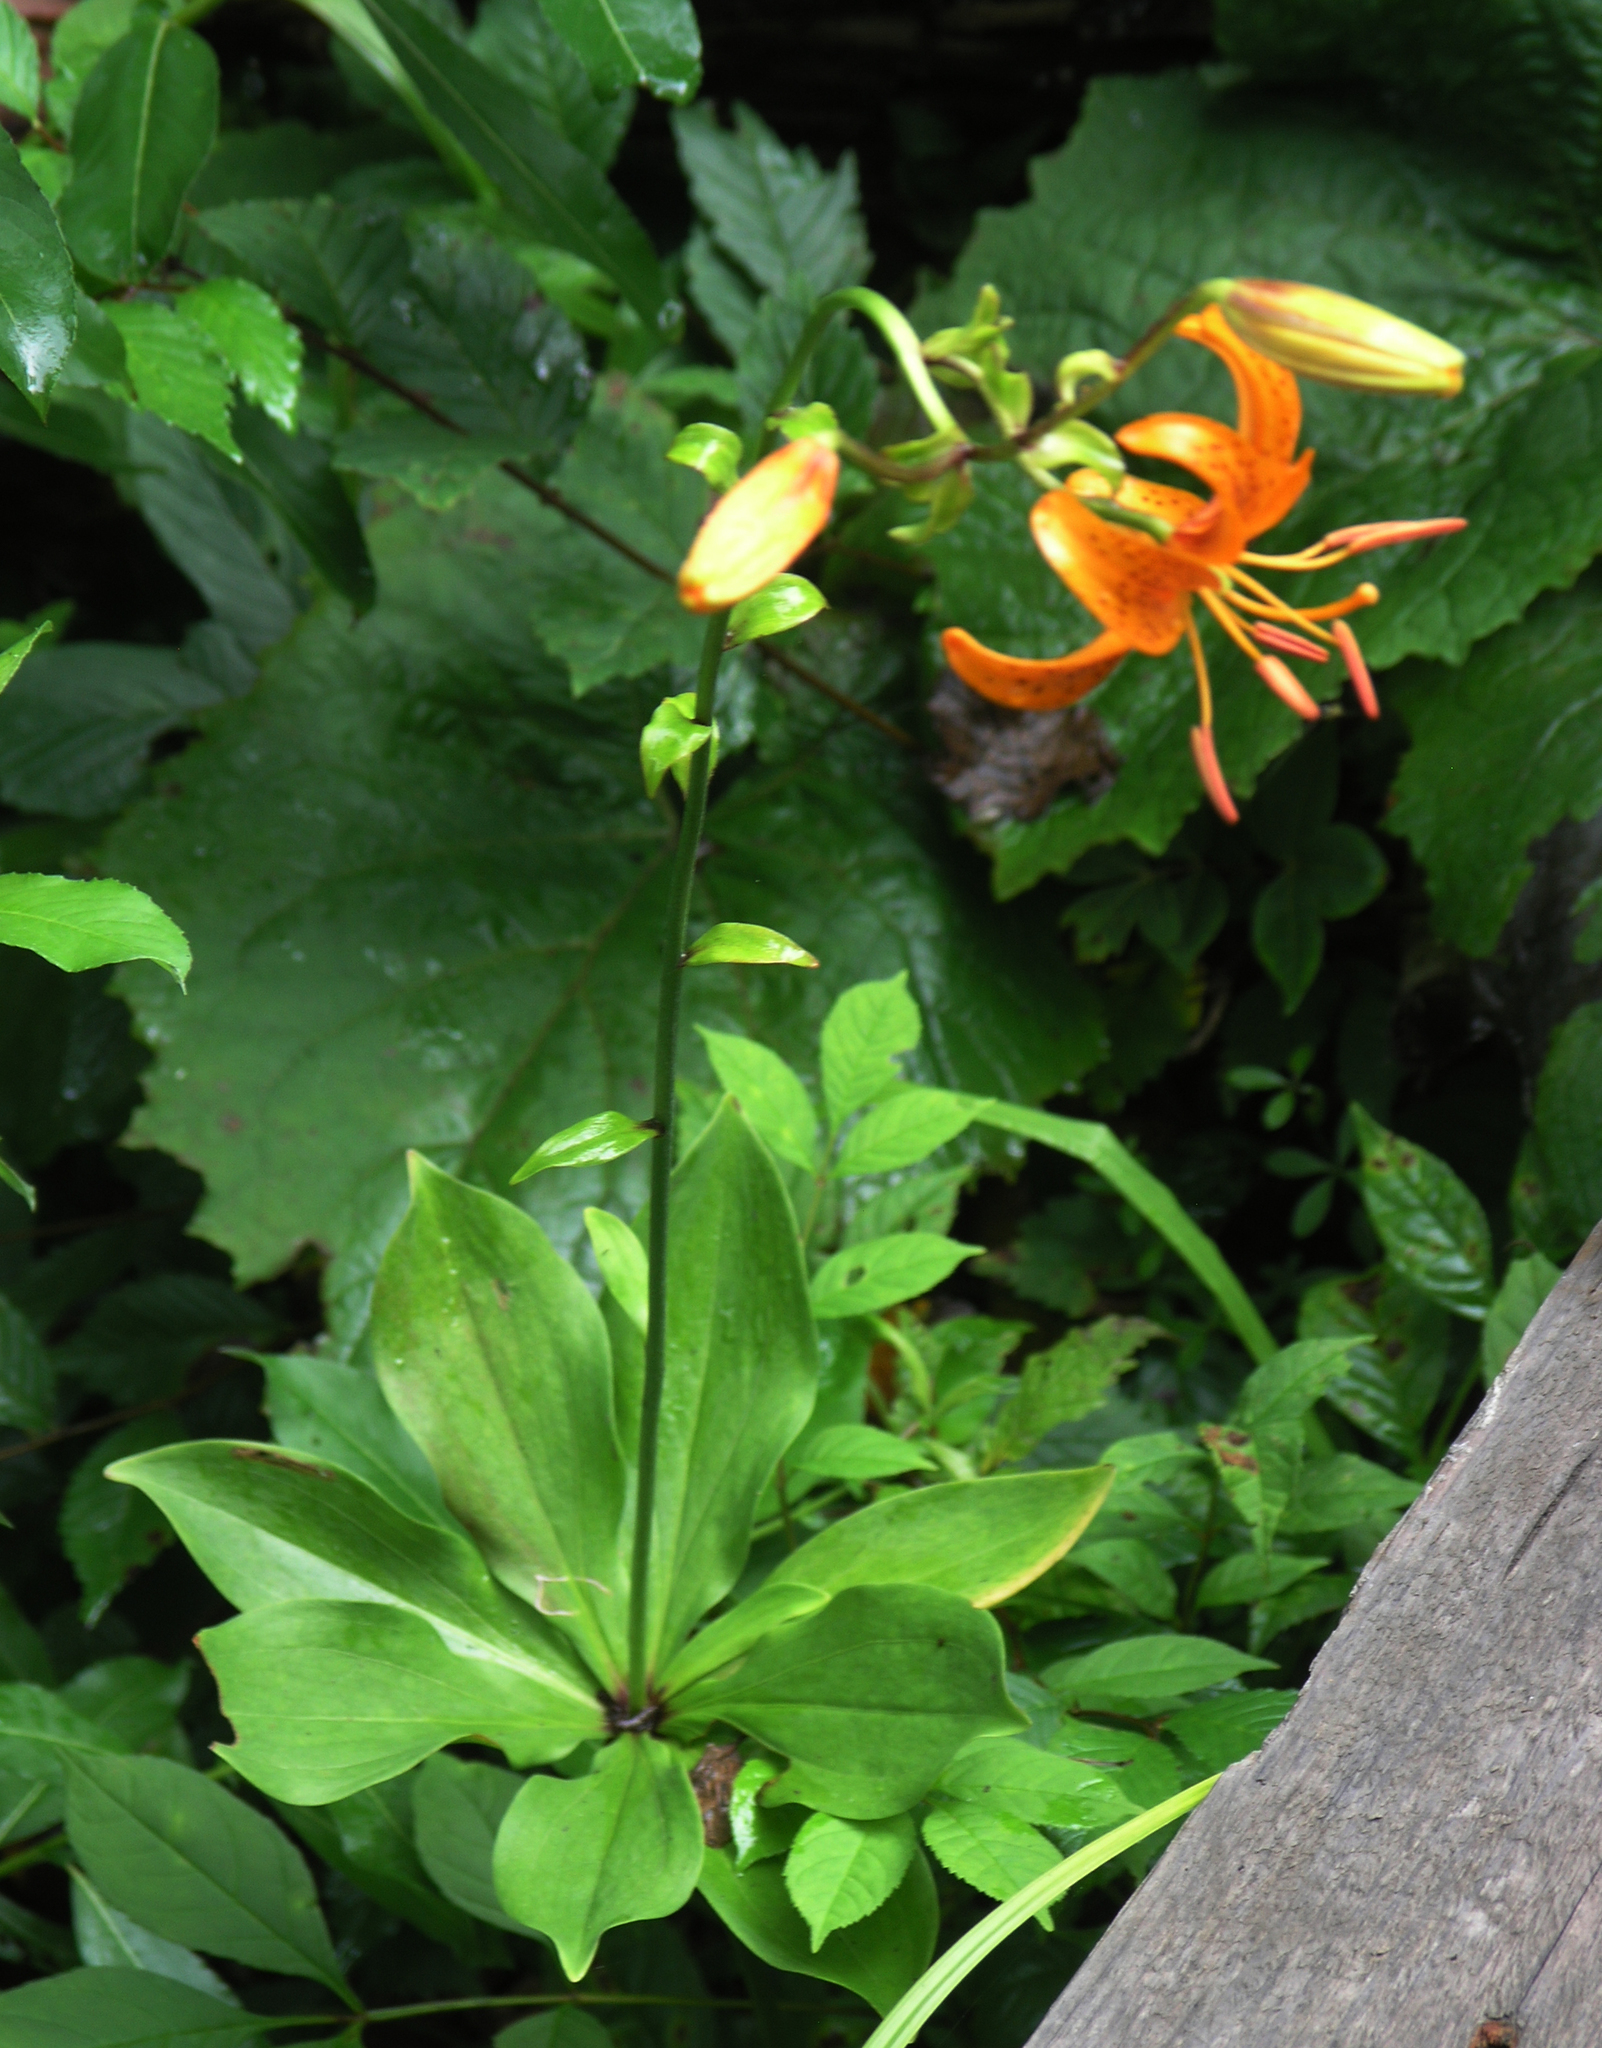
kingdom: Plantae
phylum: Tracheophyta
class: Liliopsida
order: Liliales
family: Liliaceae
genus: Lilium
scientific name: Lilium distichum
